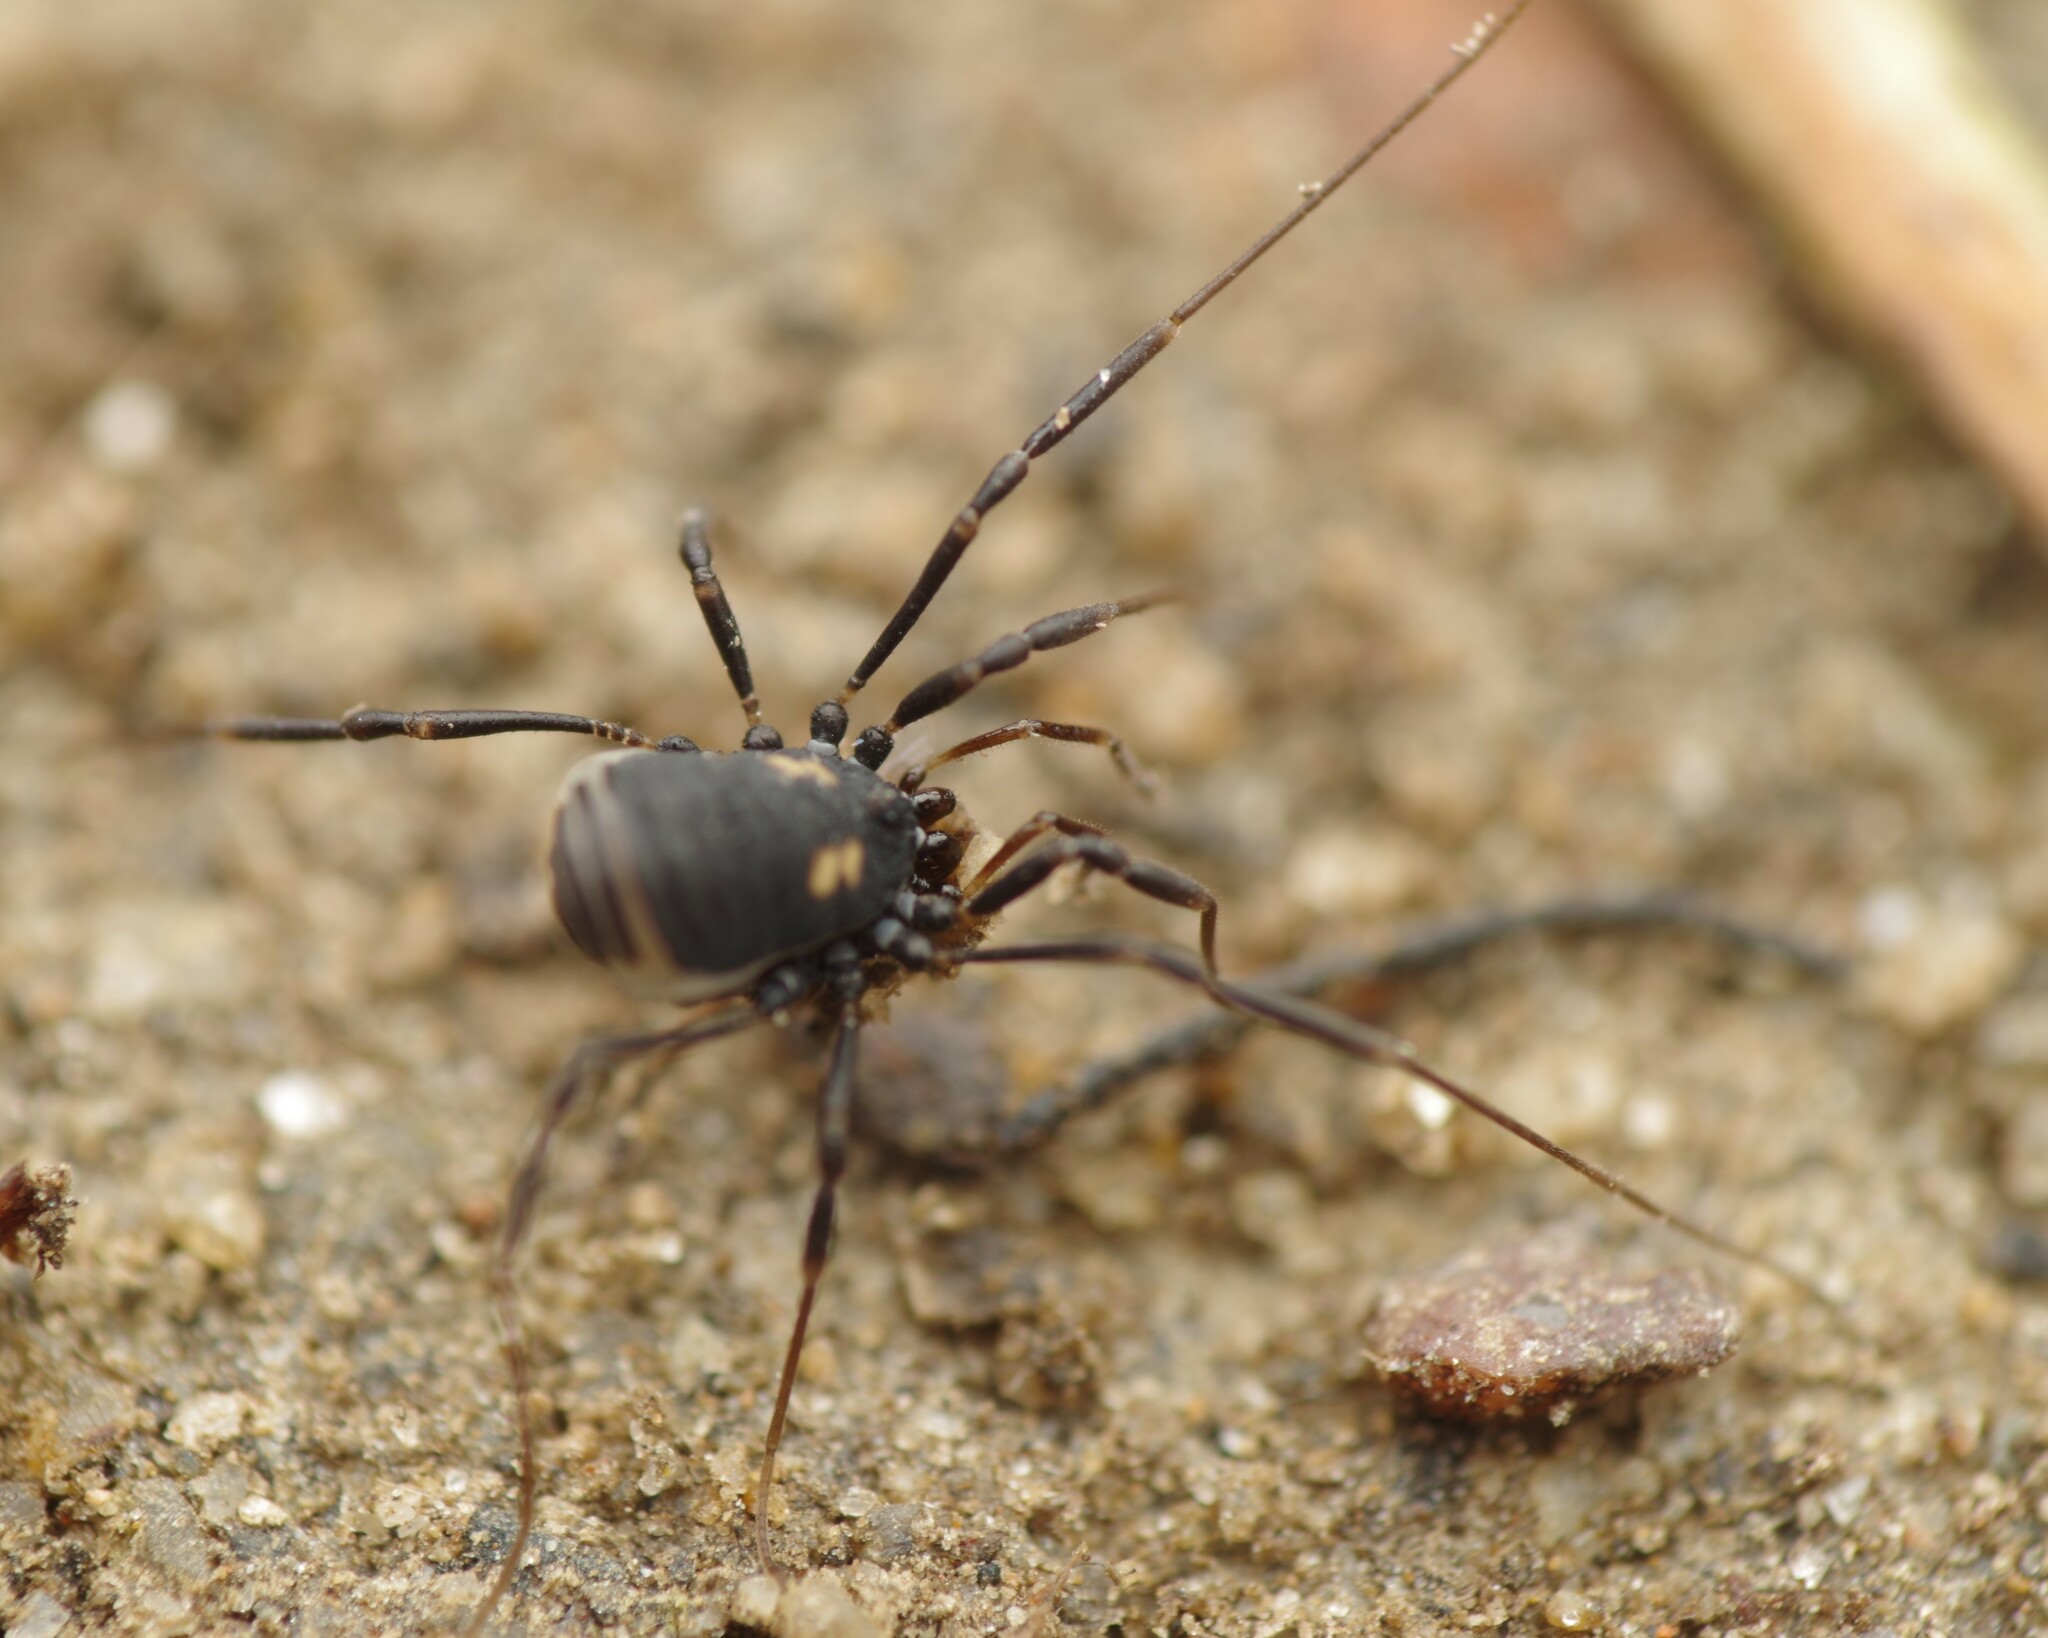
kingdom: Animalia
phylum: Arthropoda
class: Arachnida
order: Opiliones
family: Nemastomatidae
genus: Nemastoma
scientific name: Nemastoma bimaculatum
